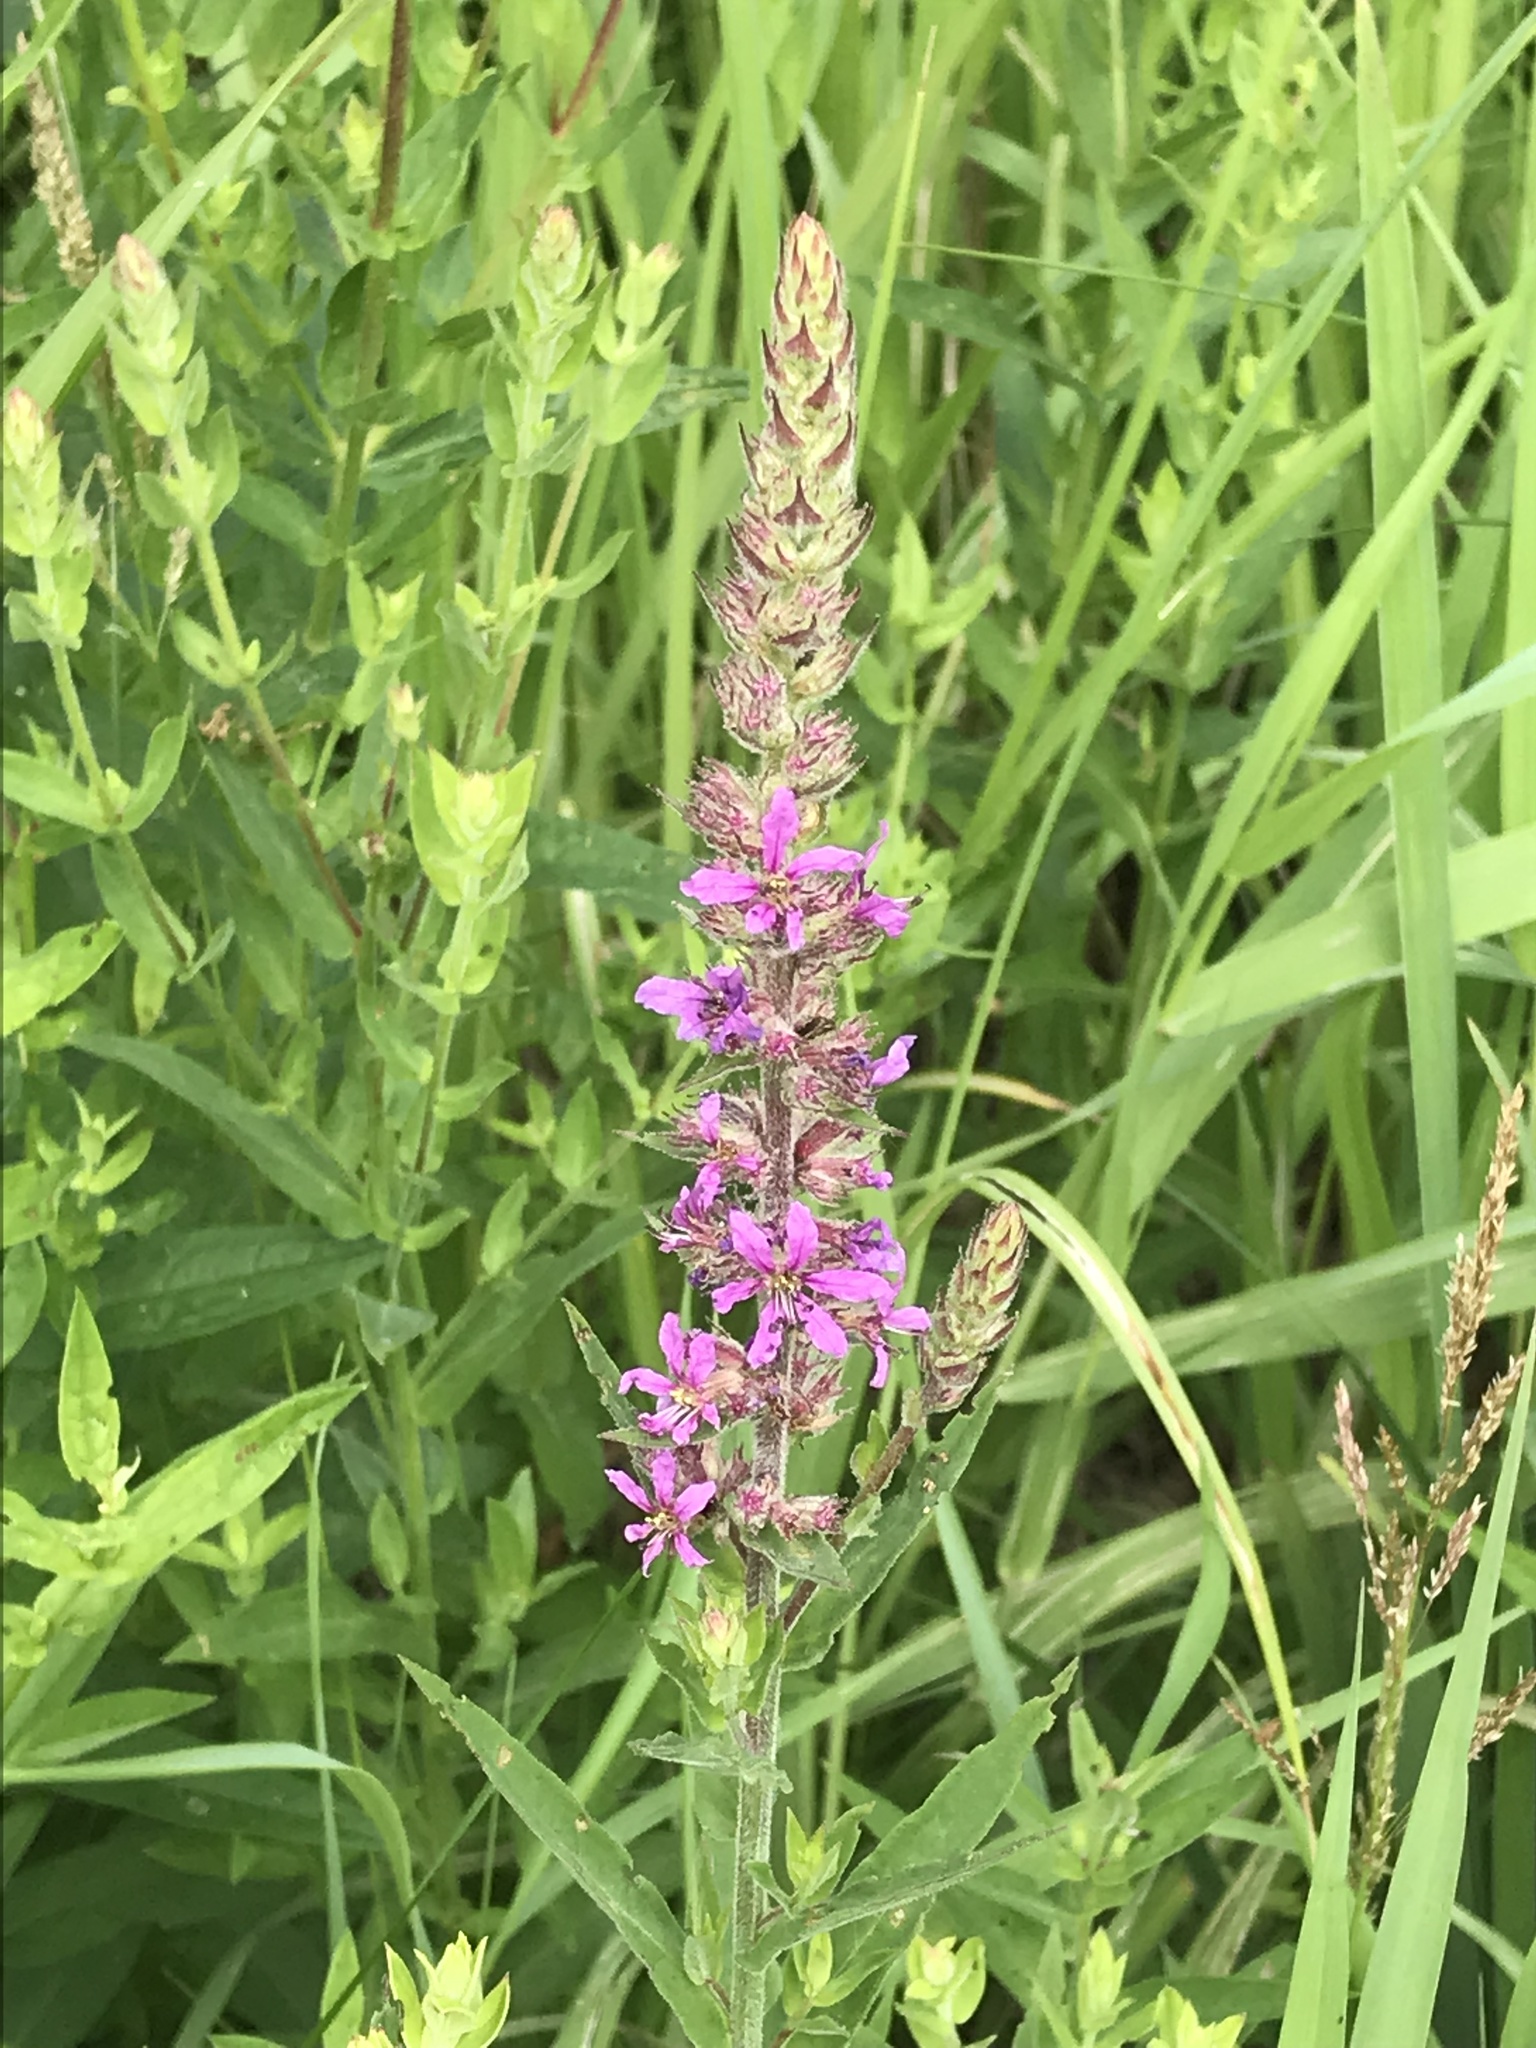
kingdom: Plantae
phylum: Tracheophyta
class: Magnoliopsida
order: Myrtales
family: Lythraceae
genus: Lythrum
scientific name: Lythrum salicaria
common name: Purple loosestrife
